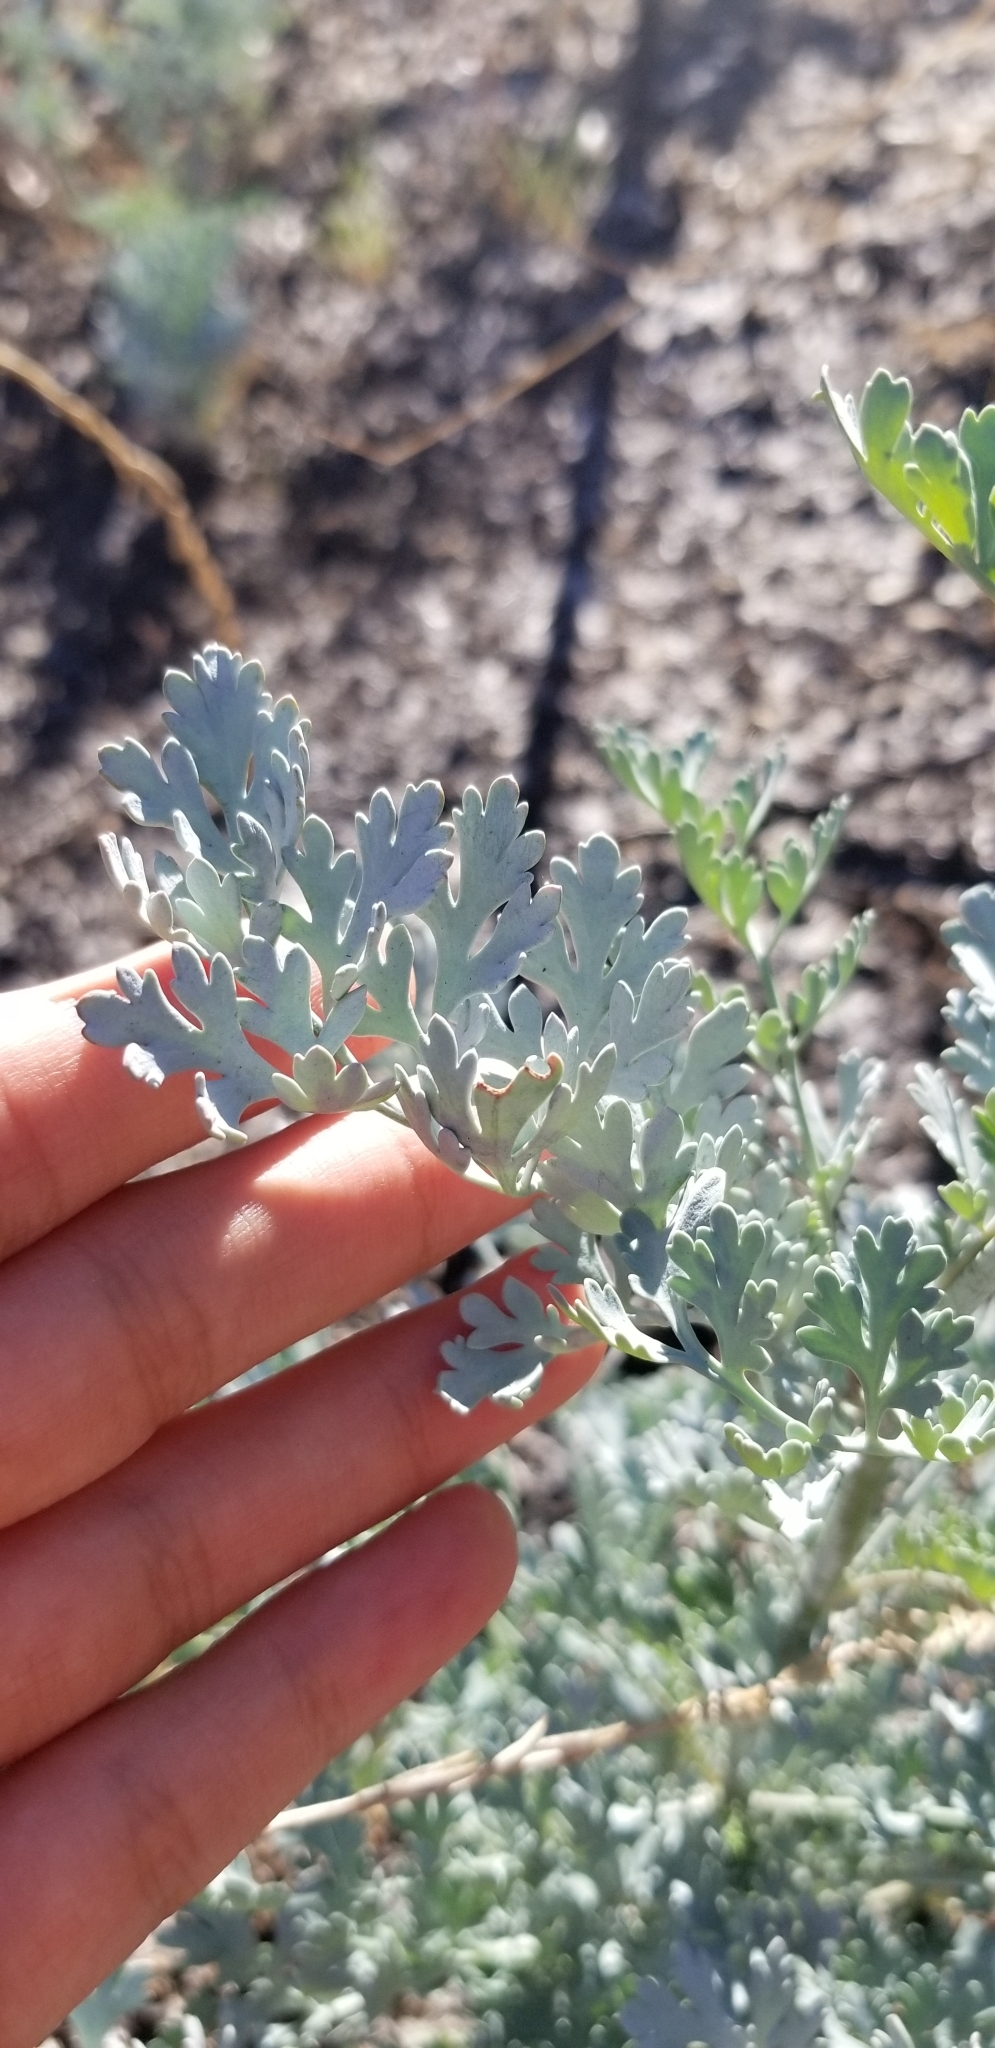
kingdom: Plantae
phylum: Tracheophyta
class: Magnoliopsida
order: Ranunculales
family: Papaveraceae
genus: Ehrendorferia
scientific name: Ehrendorferia chrysantha
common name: Golden eardrops
